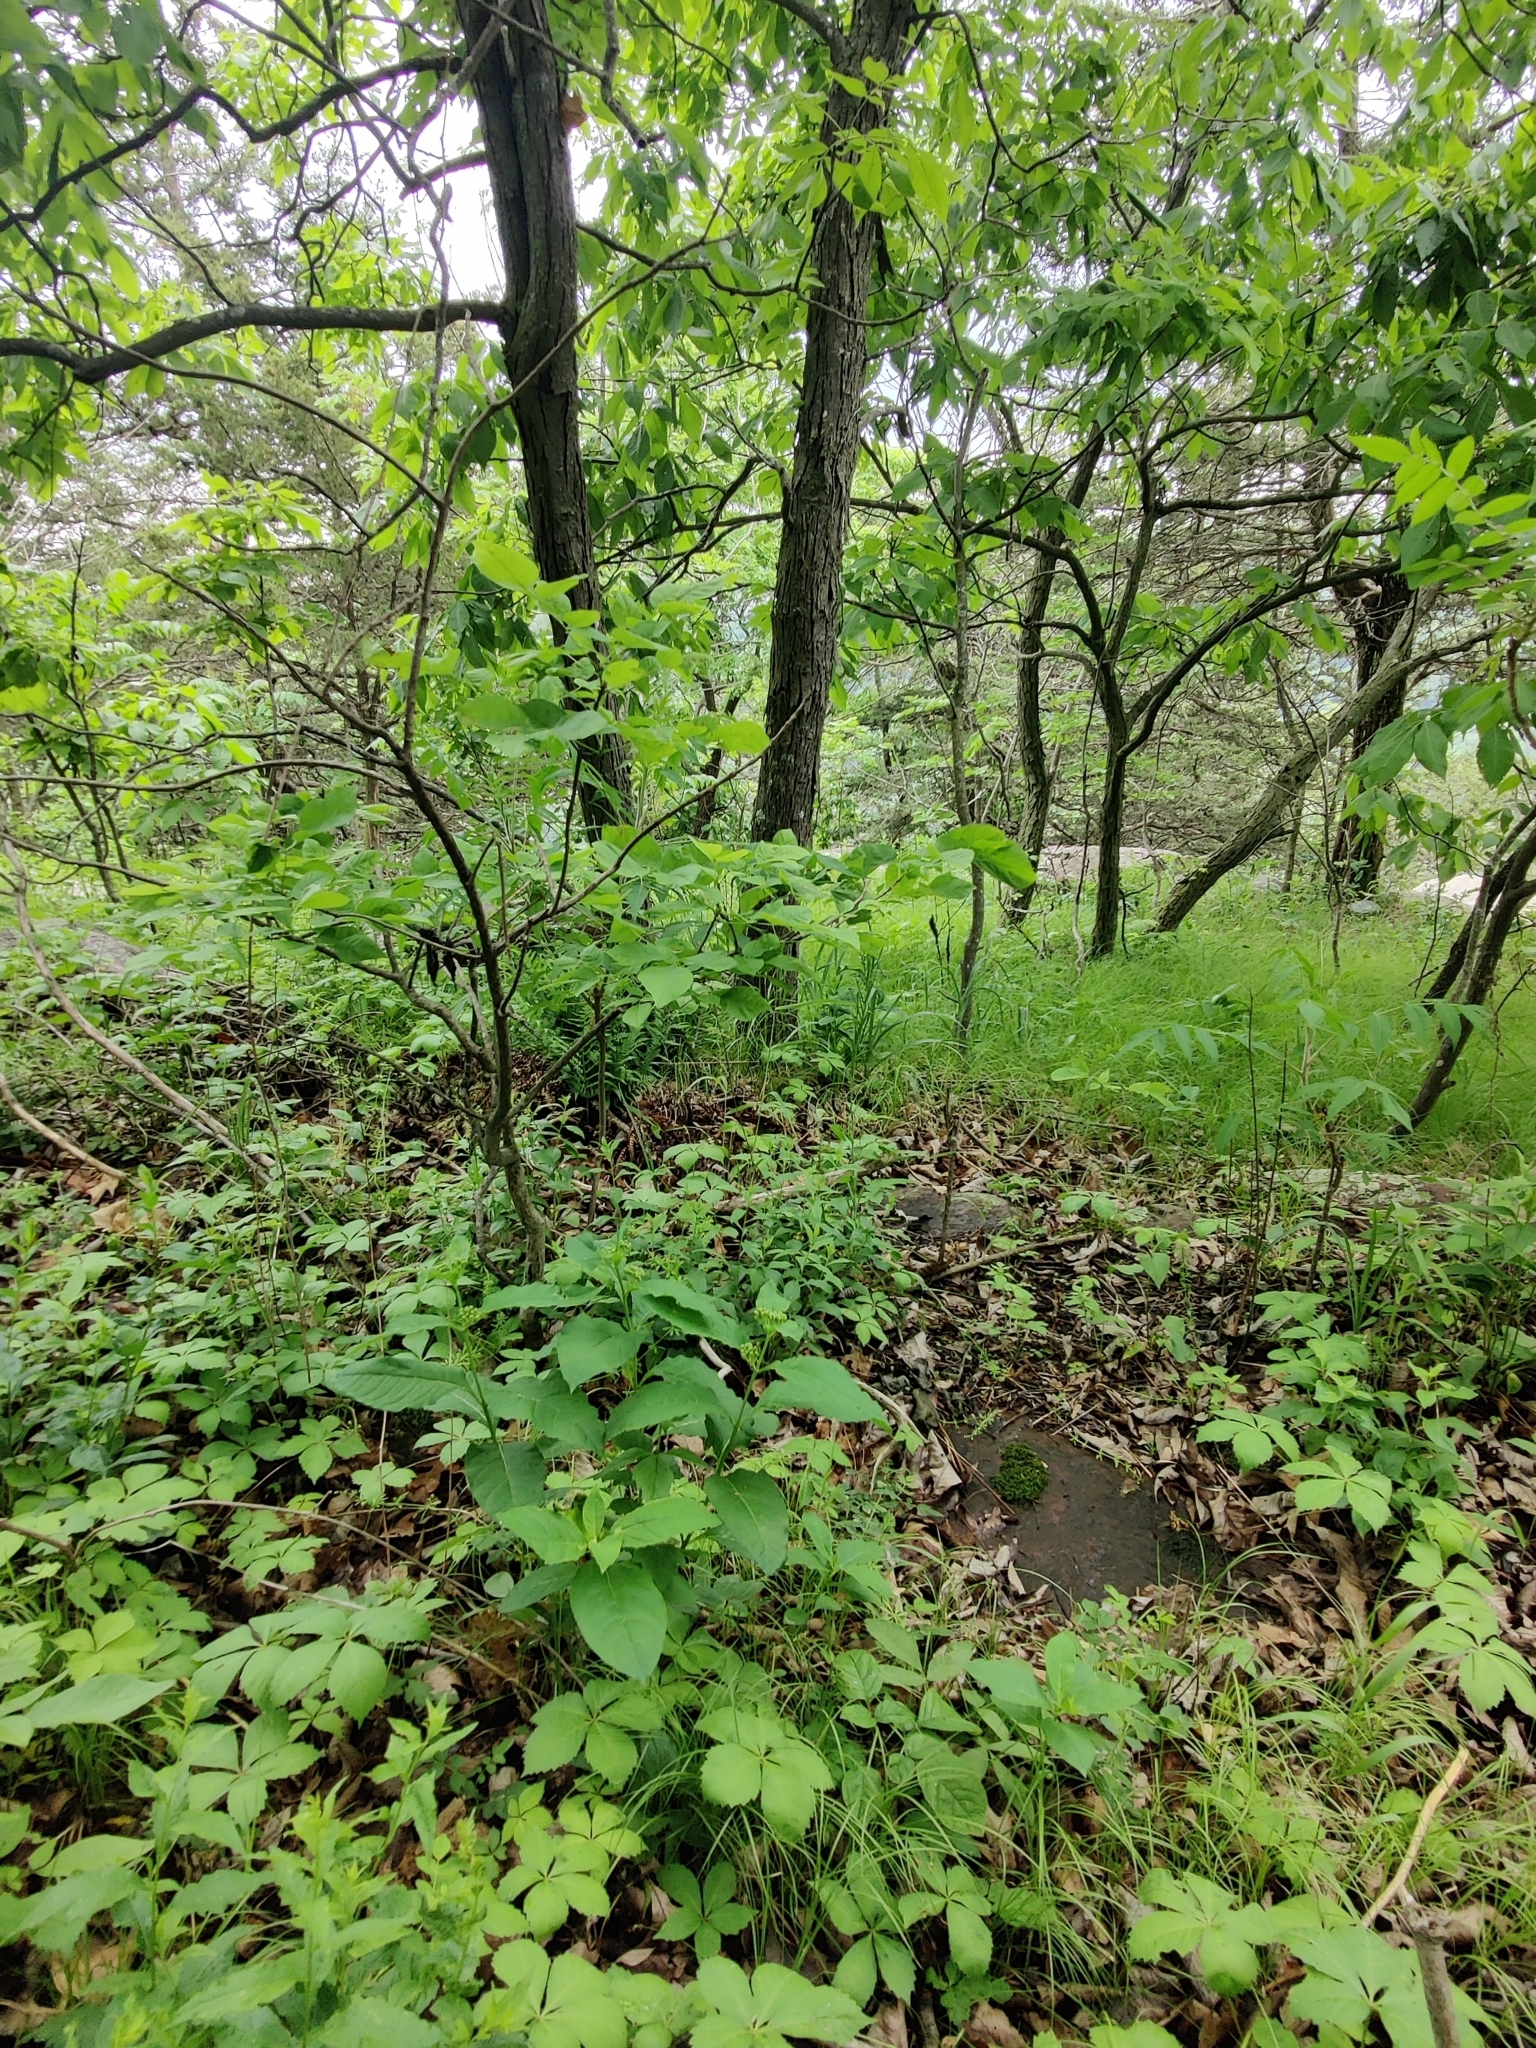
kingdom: Plantae
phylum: Tracheophyta
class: Magnoliopsida
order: Gentianales
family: Apocynaceae
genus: Asclepias
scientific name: Asclepias exaltata
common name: Poke milkweed
